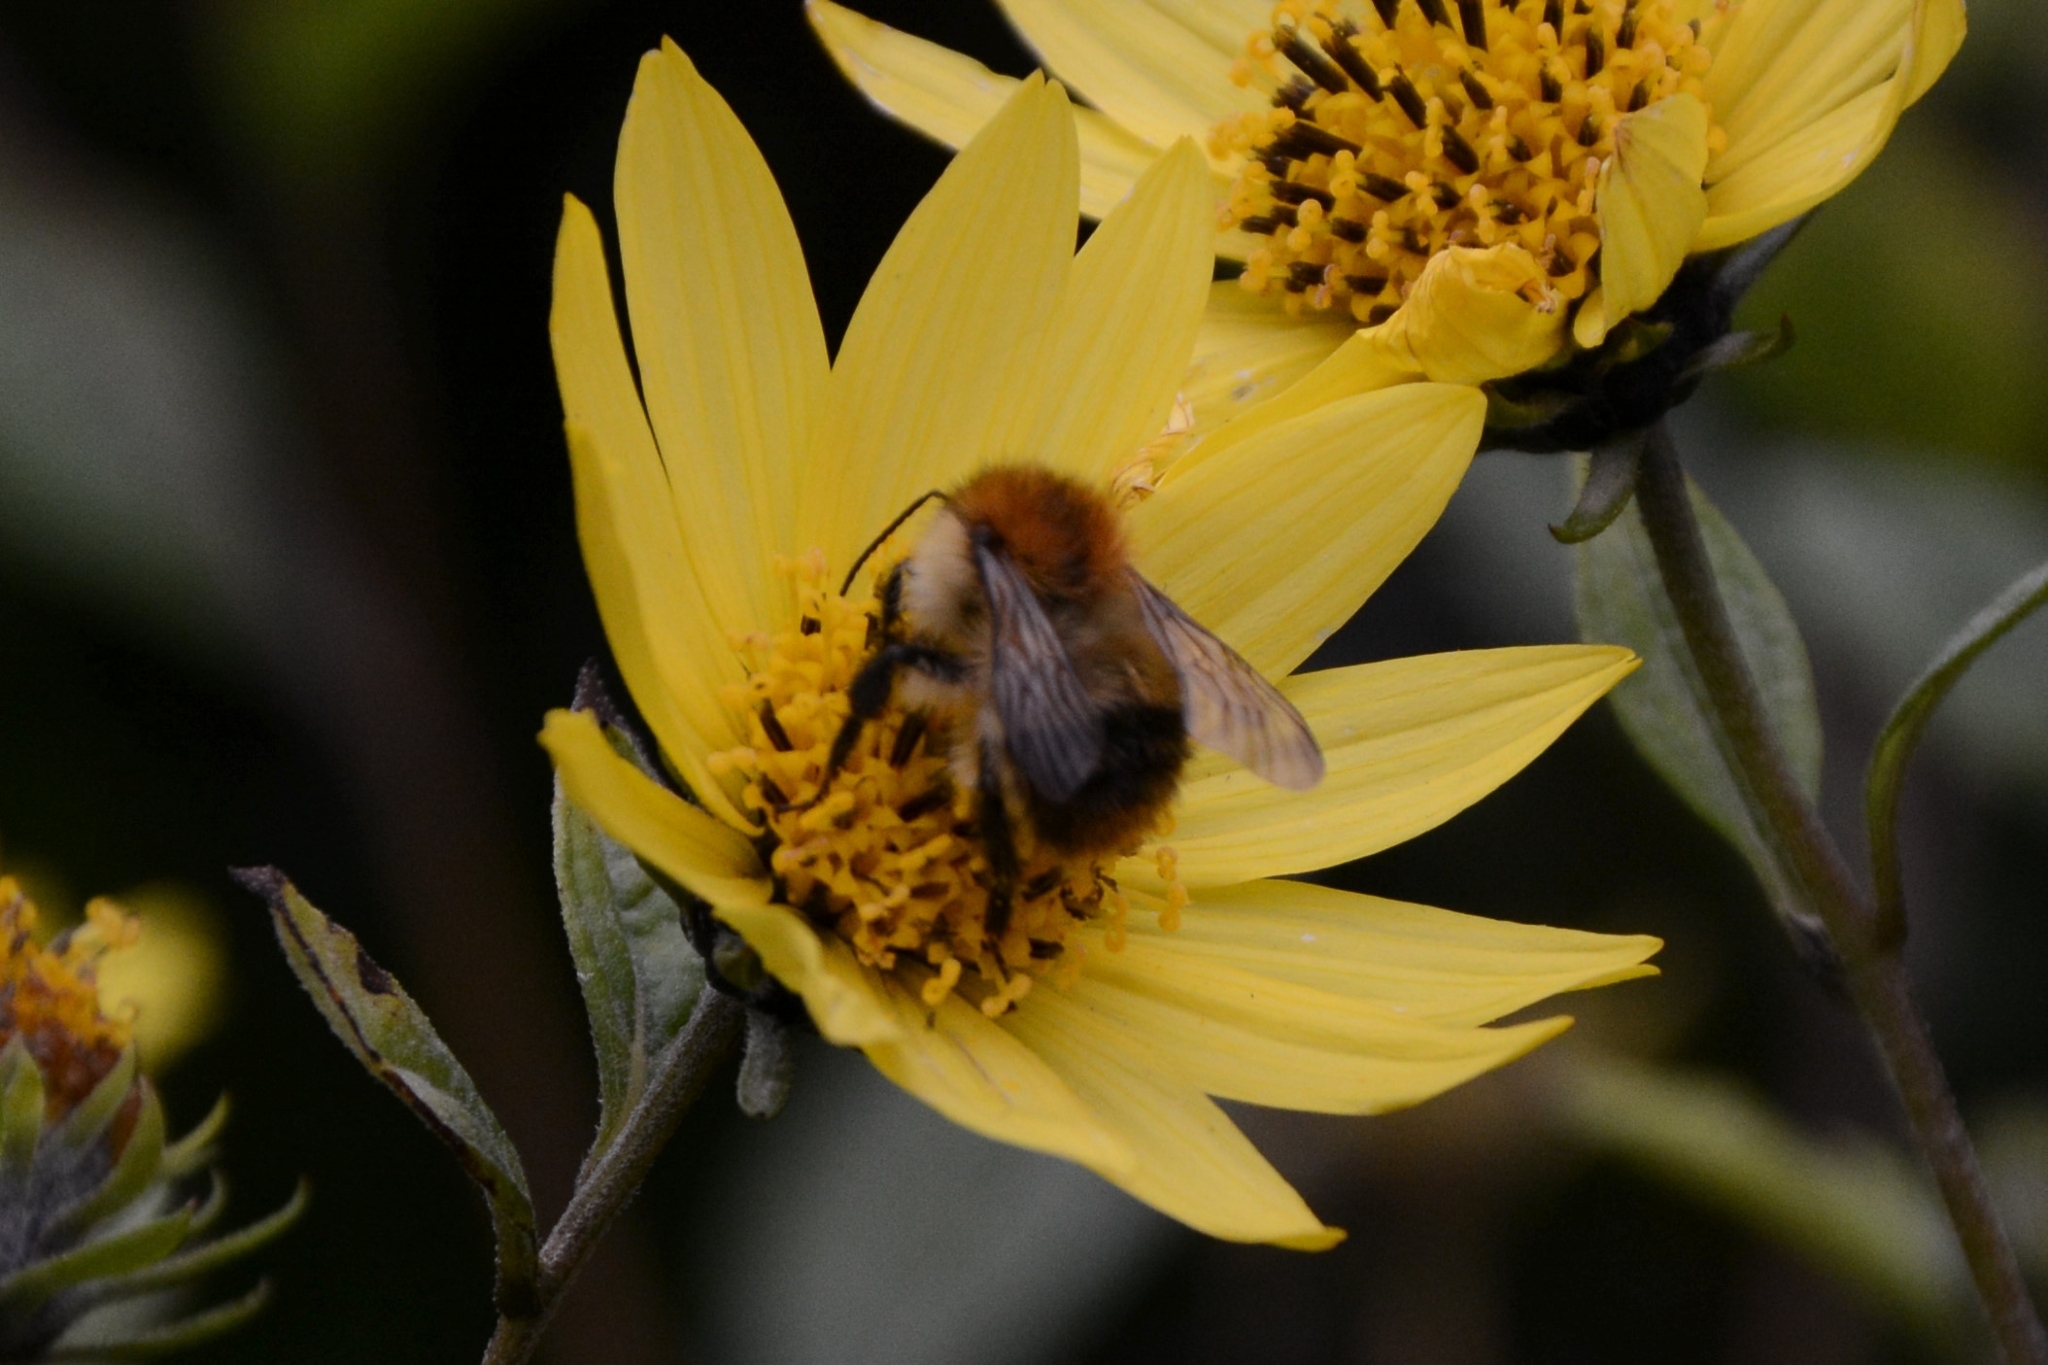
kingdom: Animalia
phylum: Arthropoda
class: Insecta
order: Hymenoptera
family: Apidae
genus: Bombus
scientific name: Bombus pascuorum
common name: Common carder bee
